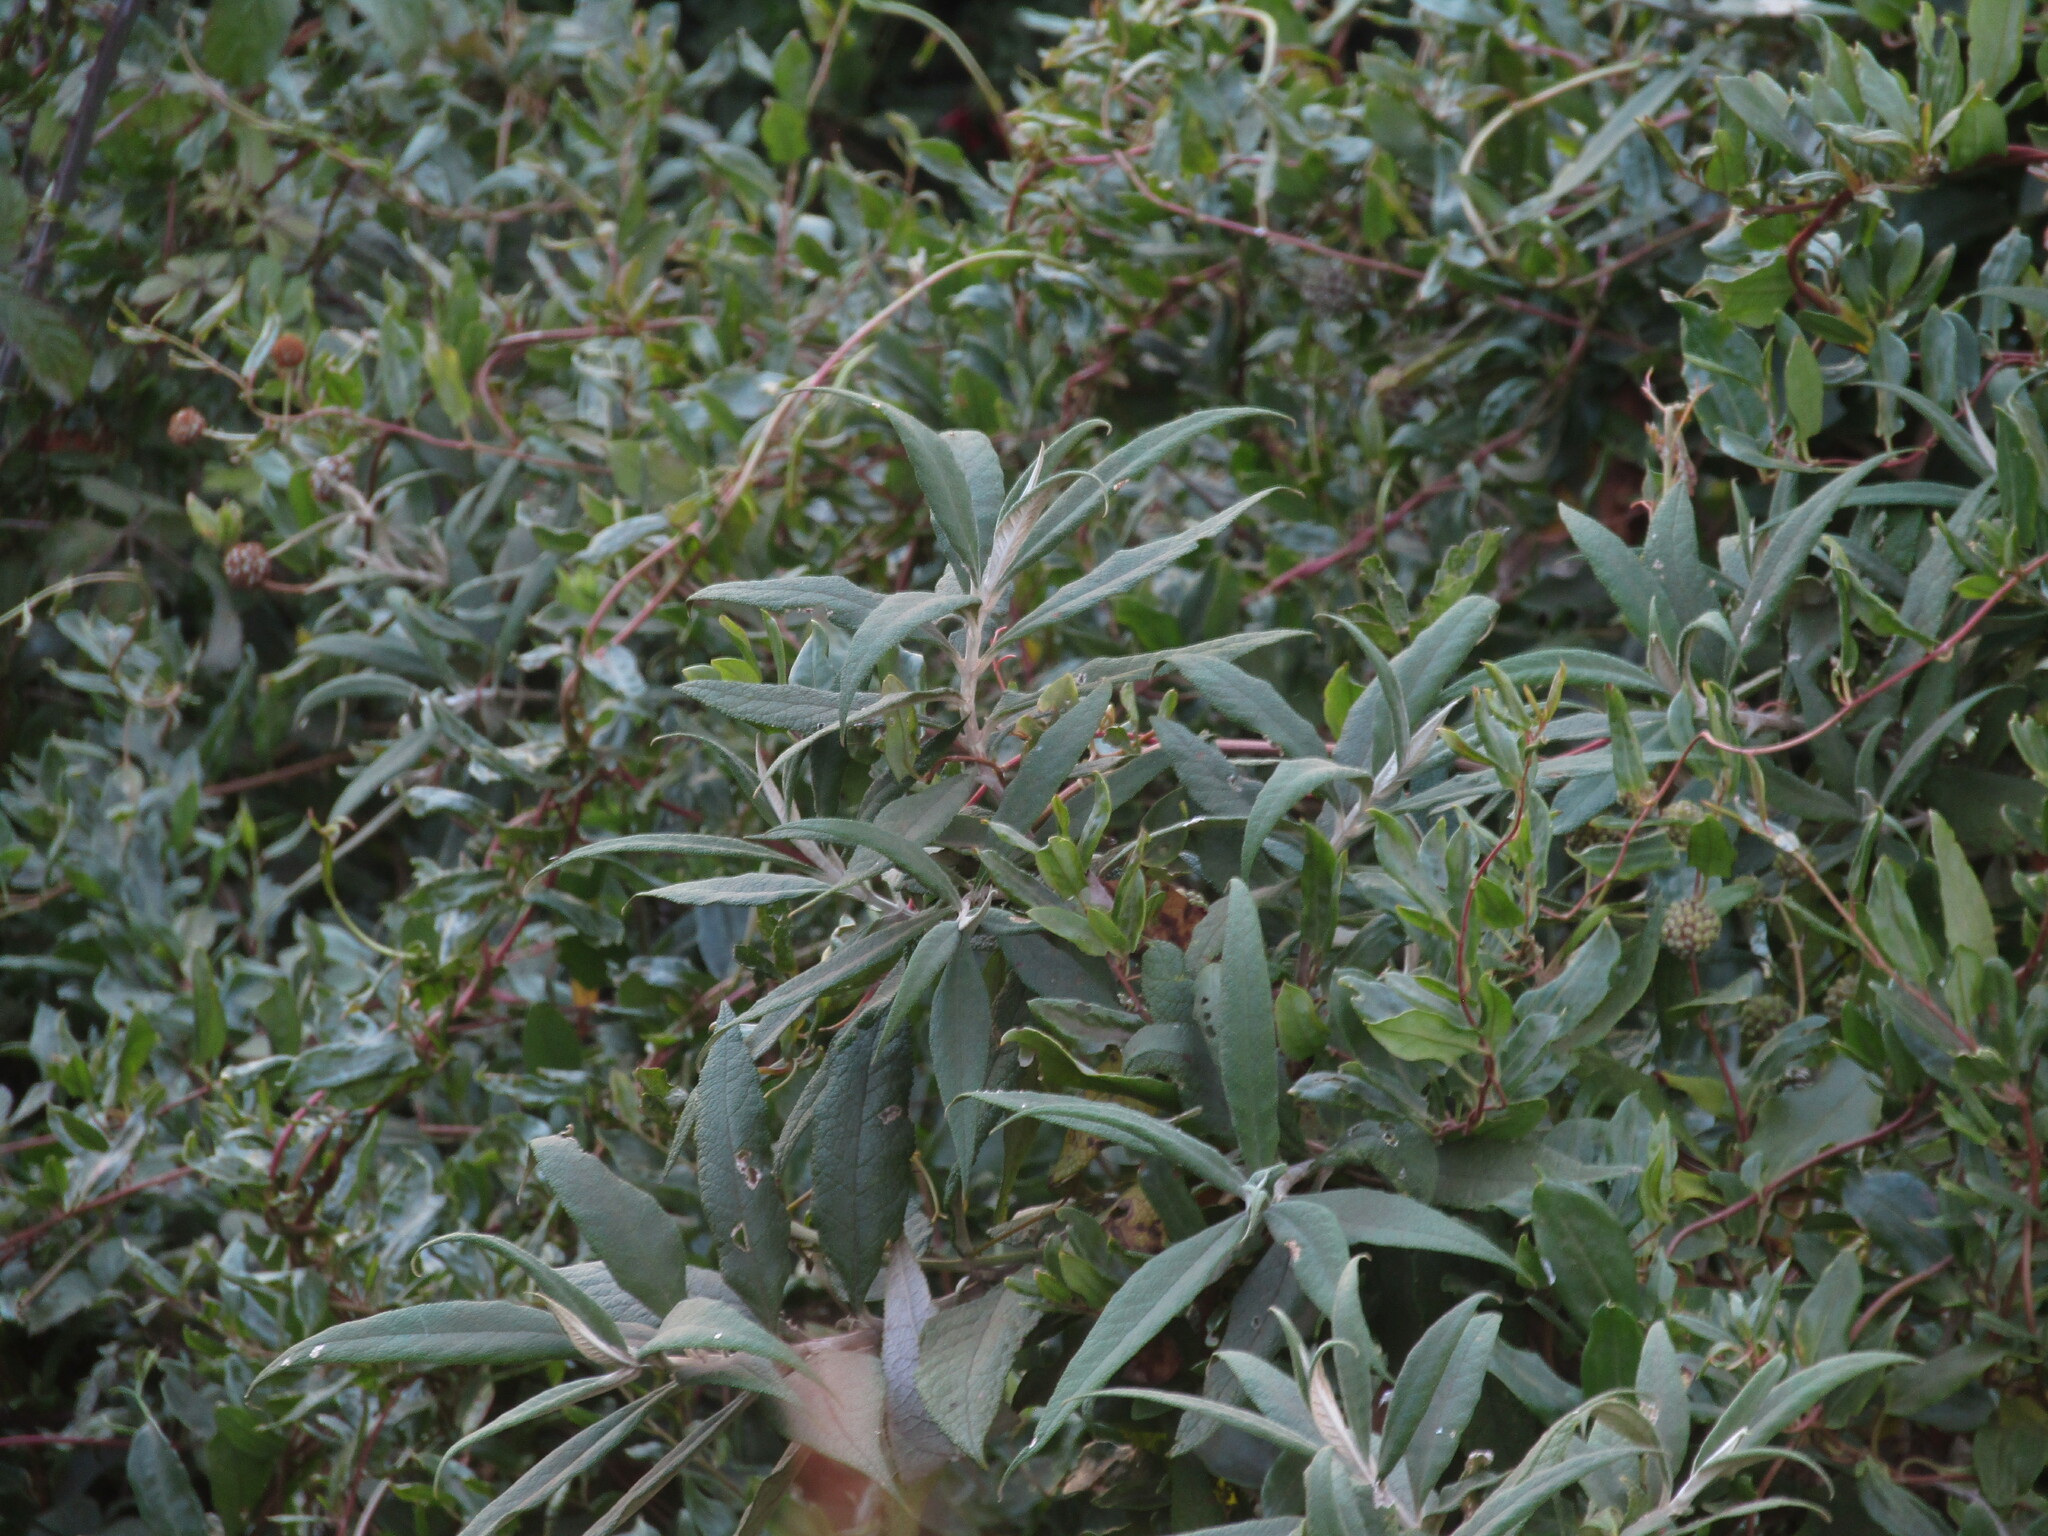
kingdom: Plantae
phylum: Tracheophyta
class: Magnoliopsida
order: Lamiales
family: Scrophulariaceae
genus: Buddleja
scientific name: Buddleja globosa
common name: Orange-ball-tree
